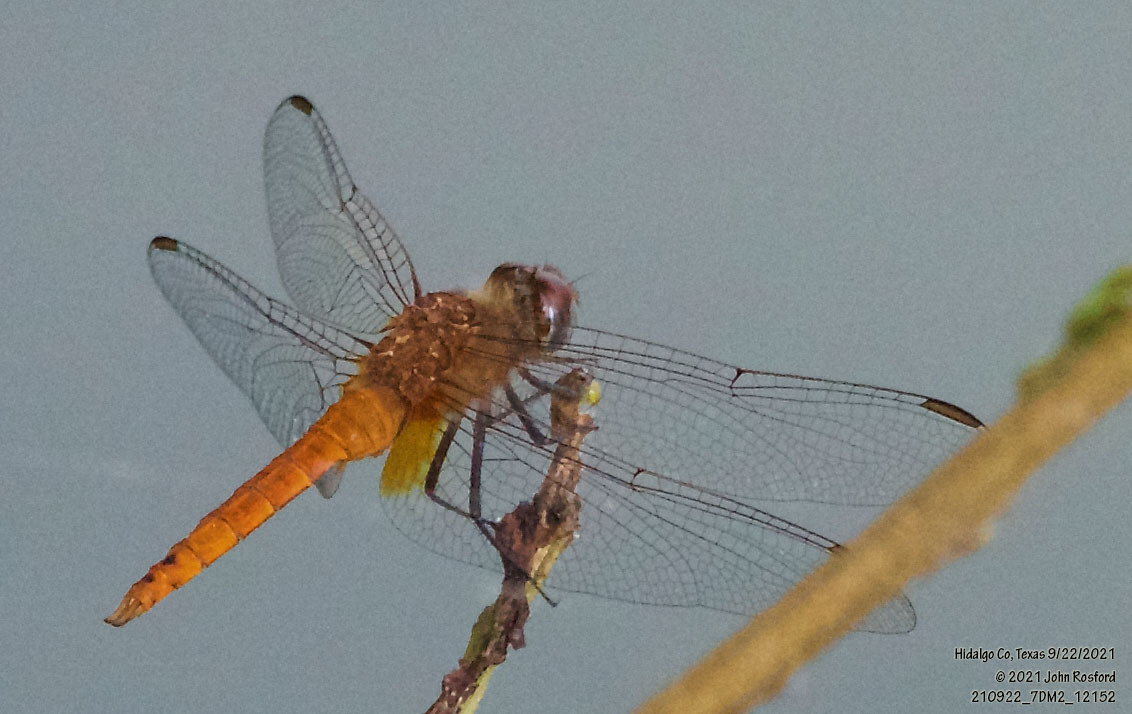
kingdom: Animalia
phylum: Arthropoda
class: Insecta
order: Odonata
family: Libellulidae
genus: Brachymesia
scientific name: Brachymesia furcata
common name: Red-taled pennant
